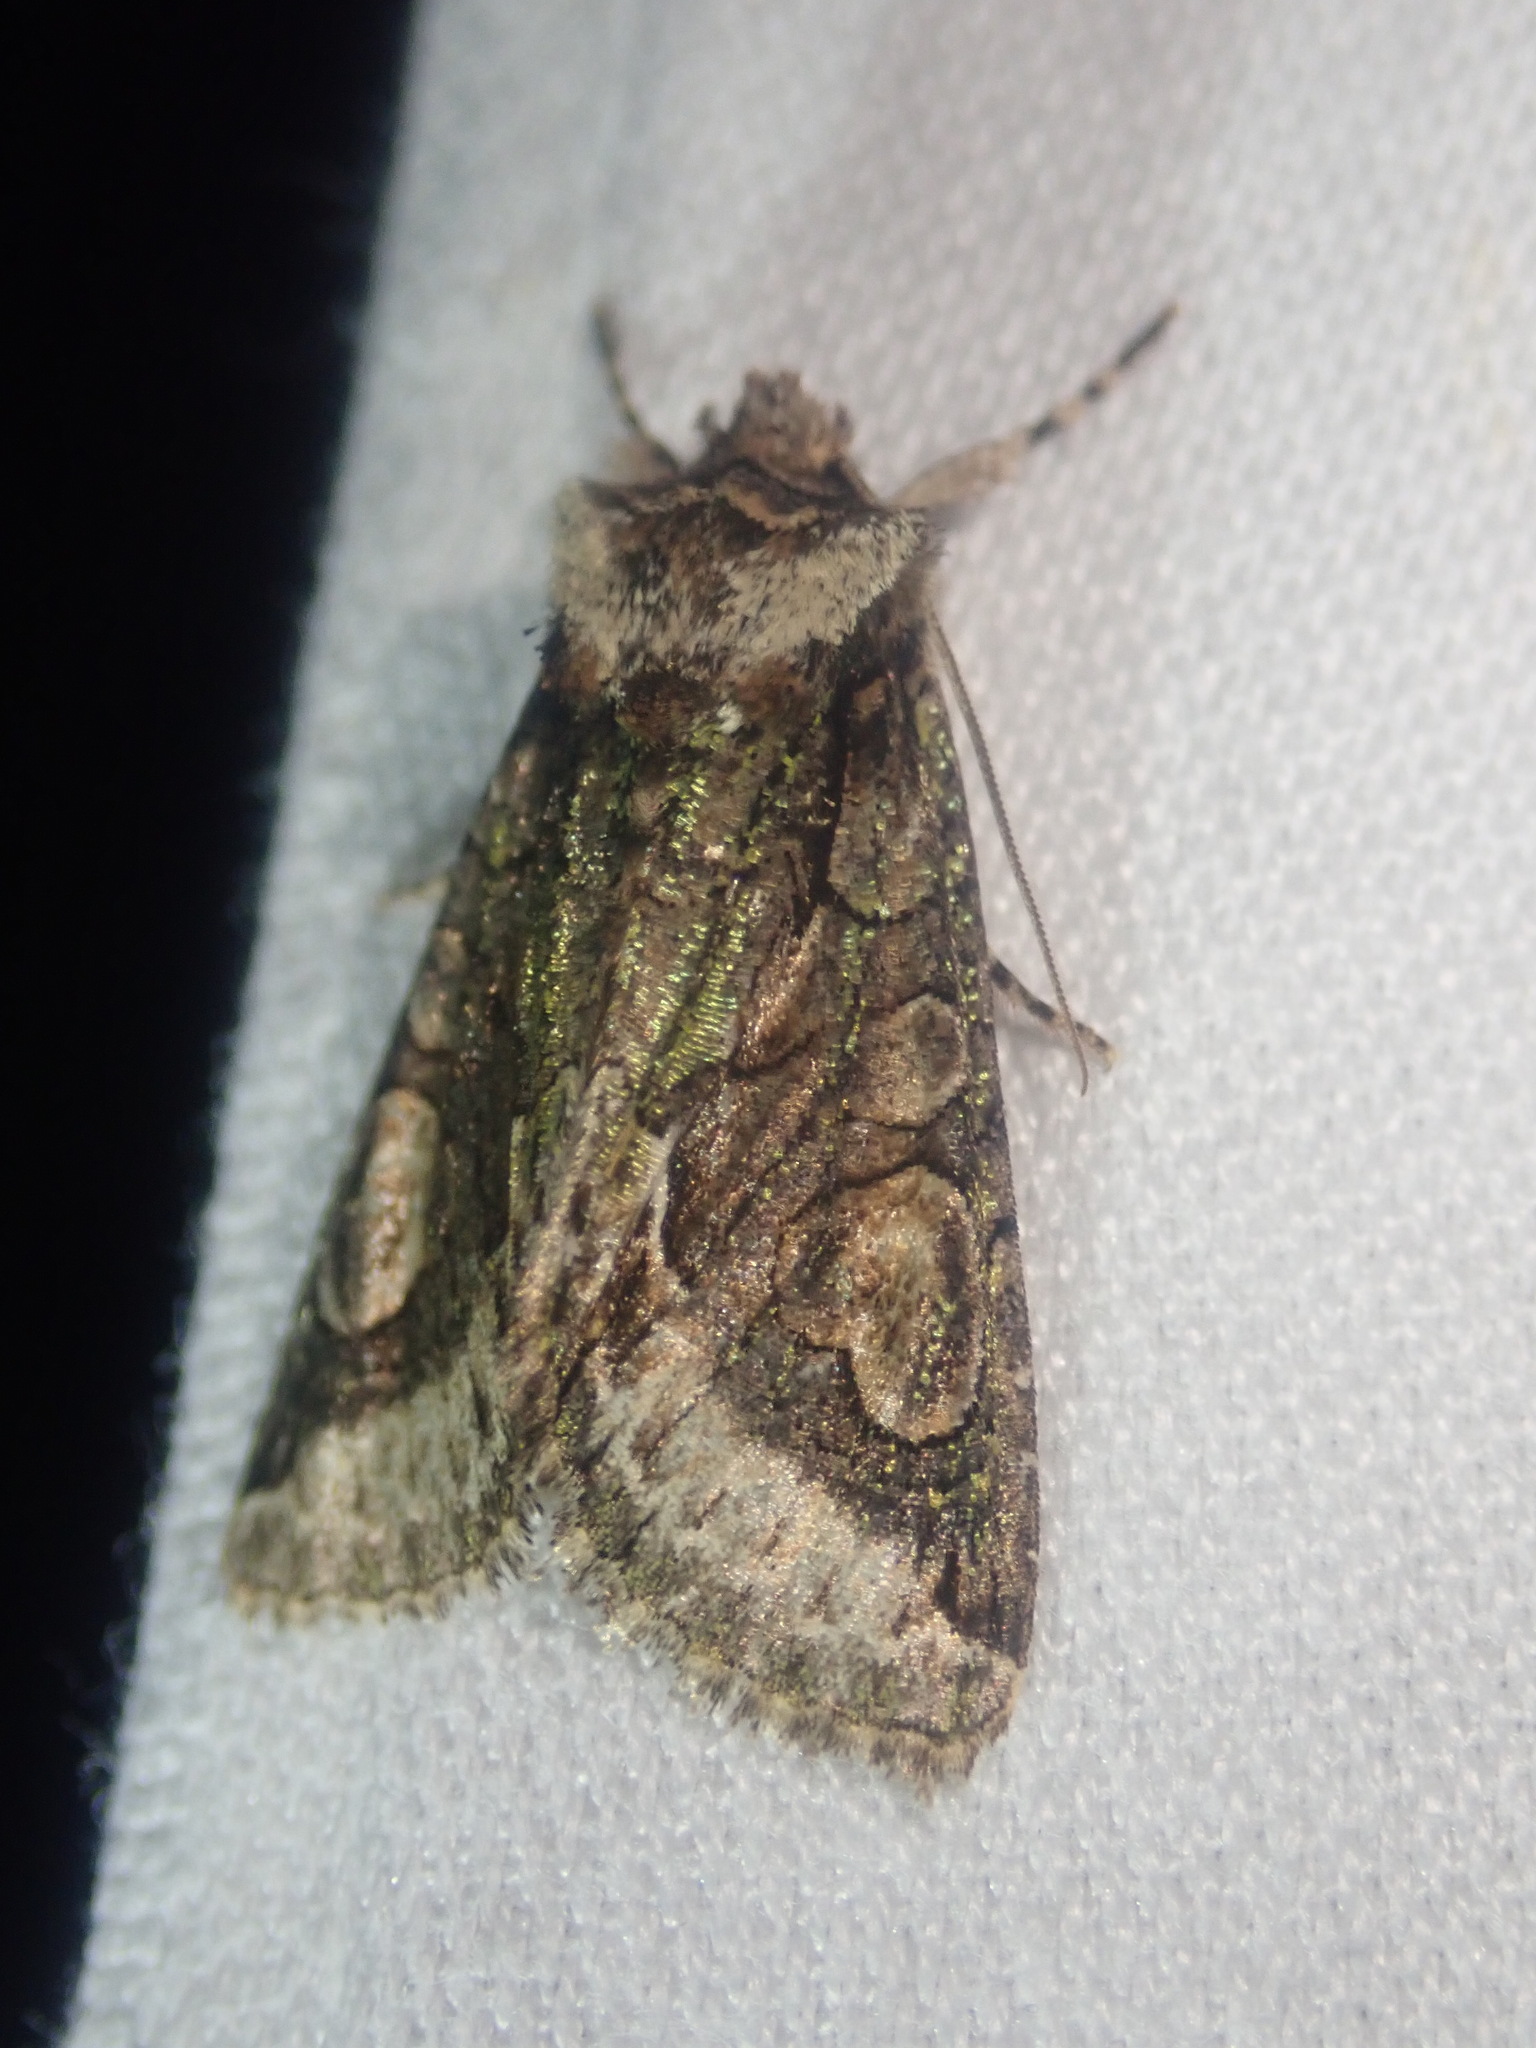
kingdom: Animalia
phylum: Arthropoda
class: Insecta
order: Lepidoptera
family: Noctuidae
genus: Allophyes
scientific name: Allophyes oxyacanthae
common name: Green-brindled crescent
